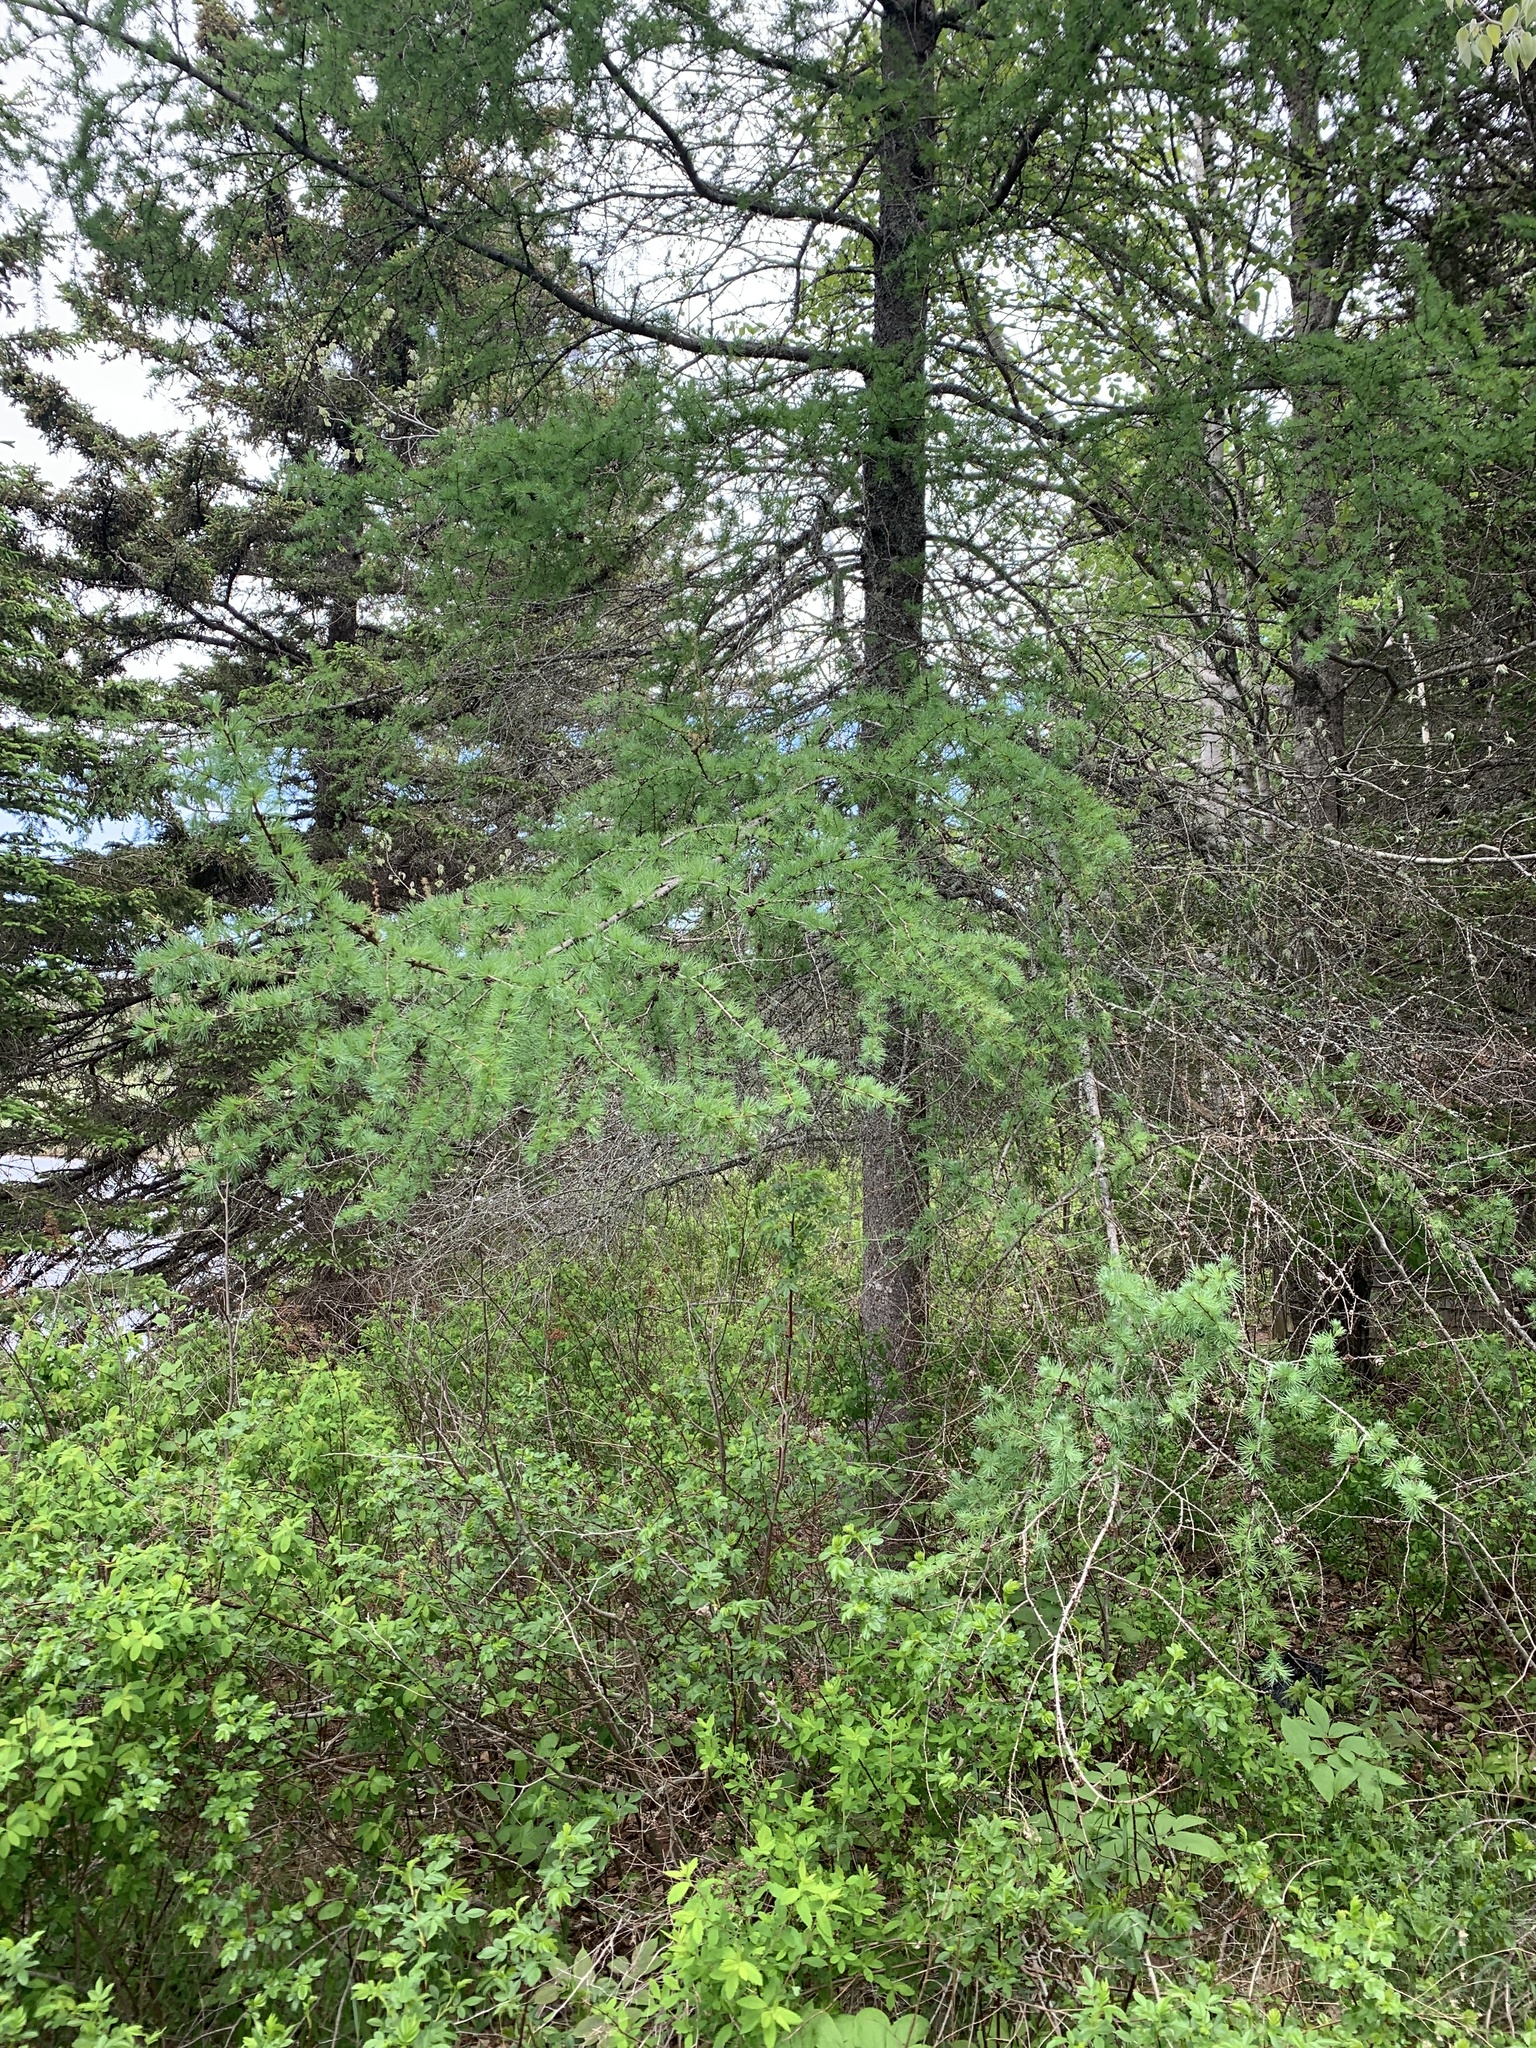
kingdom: Plantae
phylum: Tracheophyta
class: Pinopsida
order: Pinales
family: Pinaceae
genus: Larix
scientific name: Larix laricina
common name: American larch
